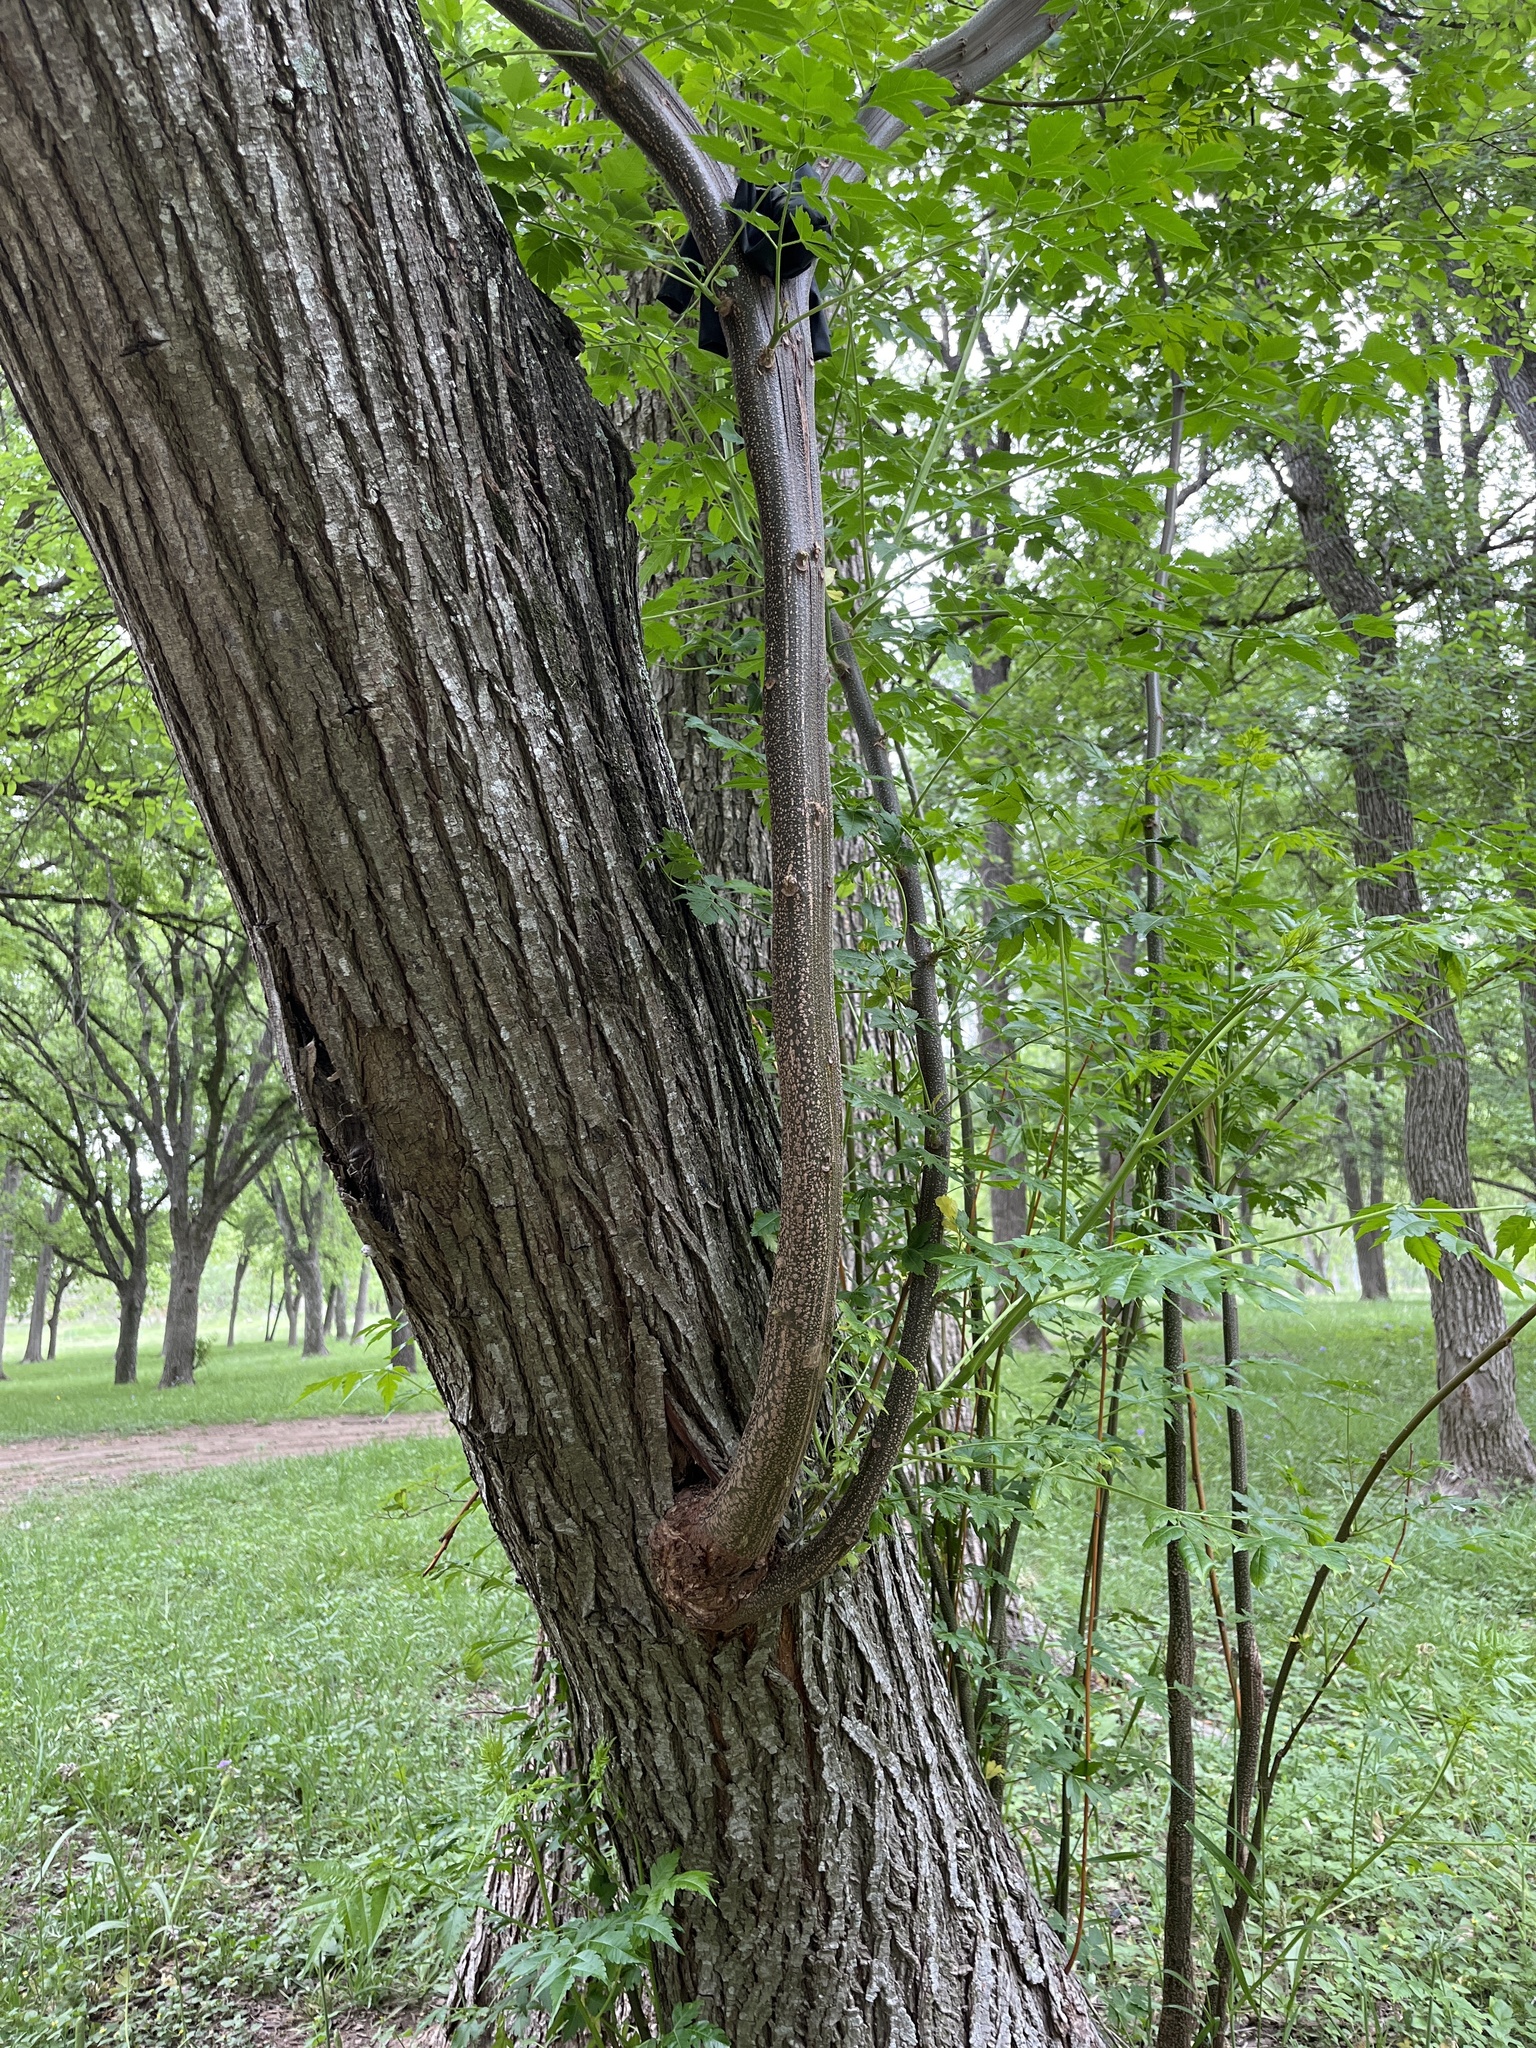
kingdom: Plantae
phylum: Tracheophyta
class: Magnoliopsida
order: Sapindales
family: Meliaceae
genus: Melia
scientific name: Melia azedarach
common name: Chinaberrytree
